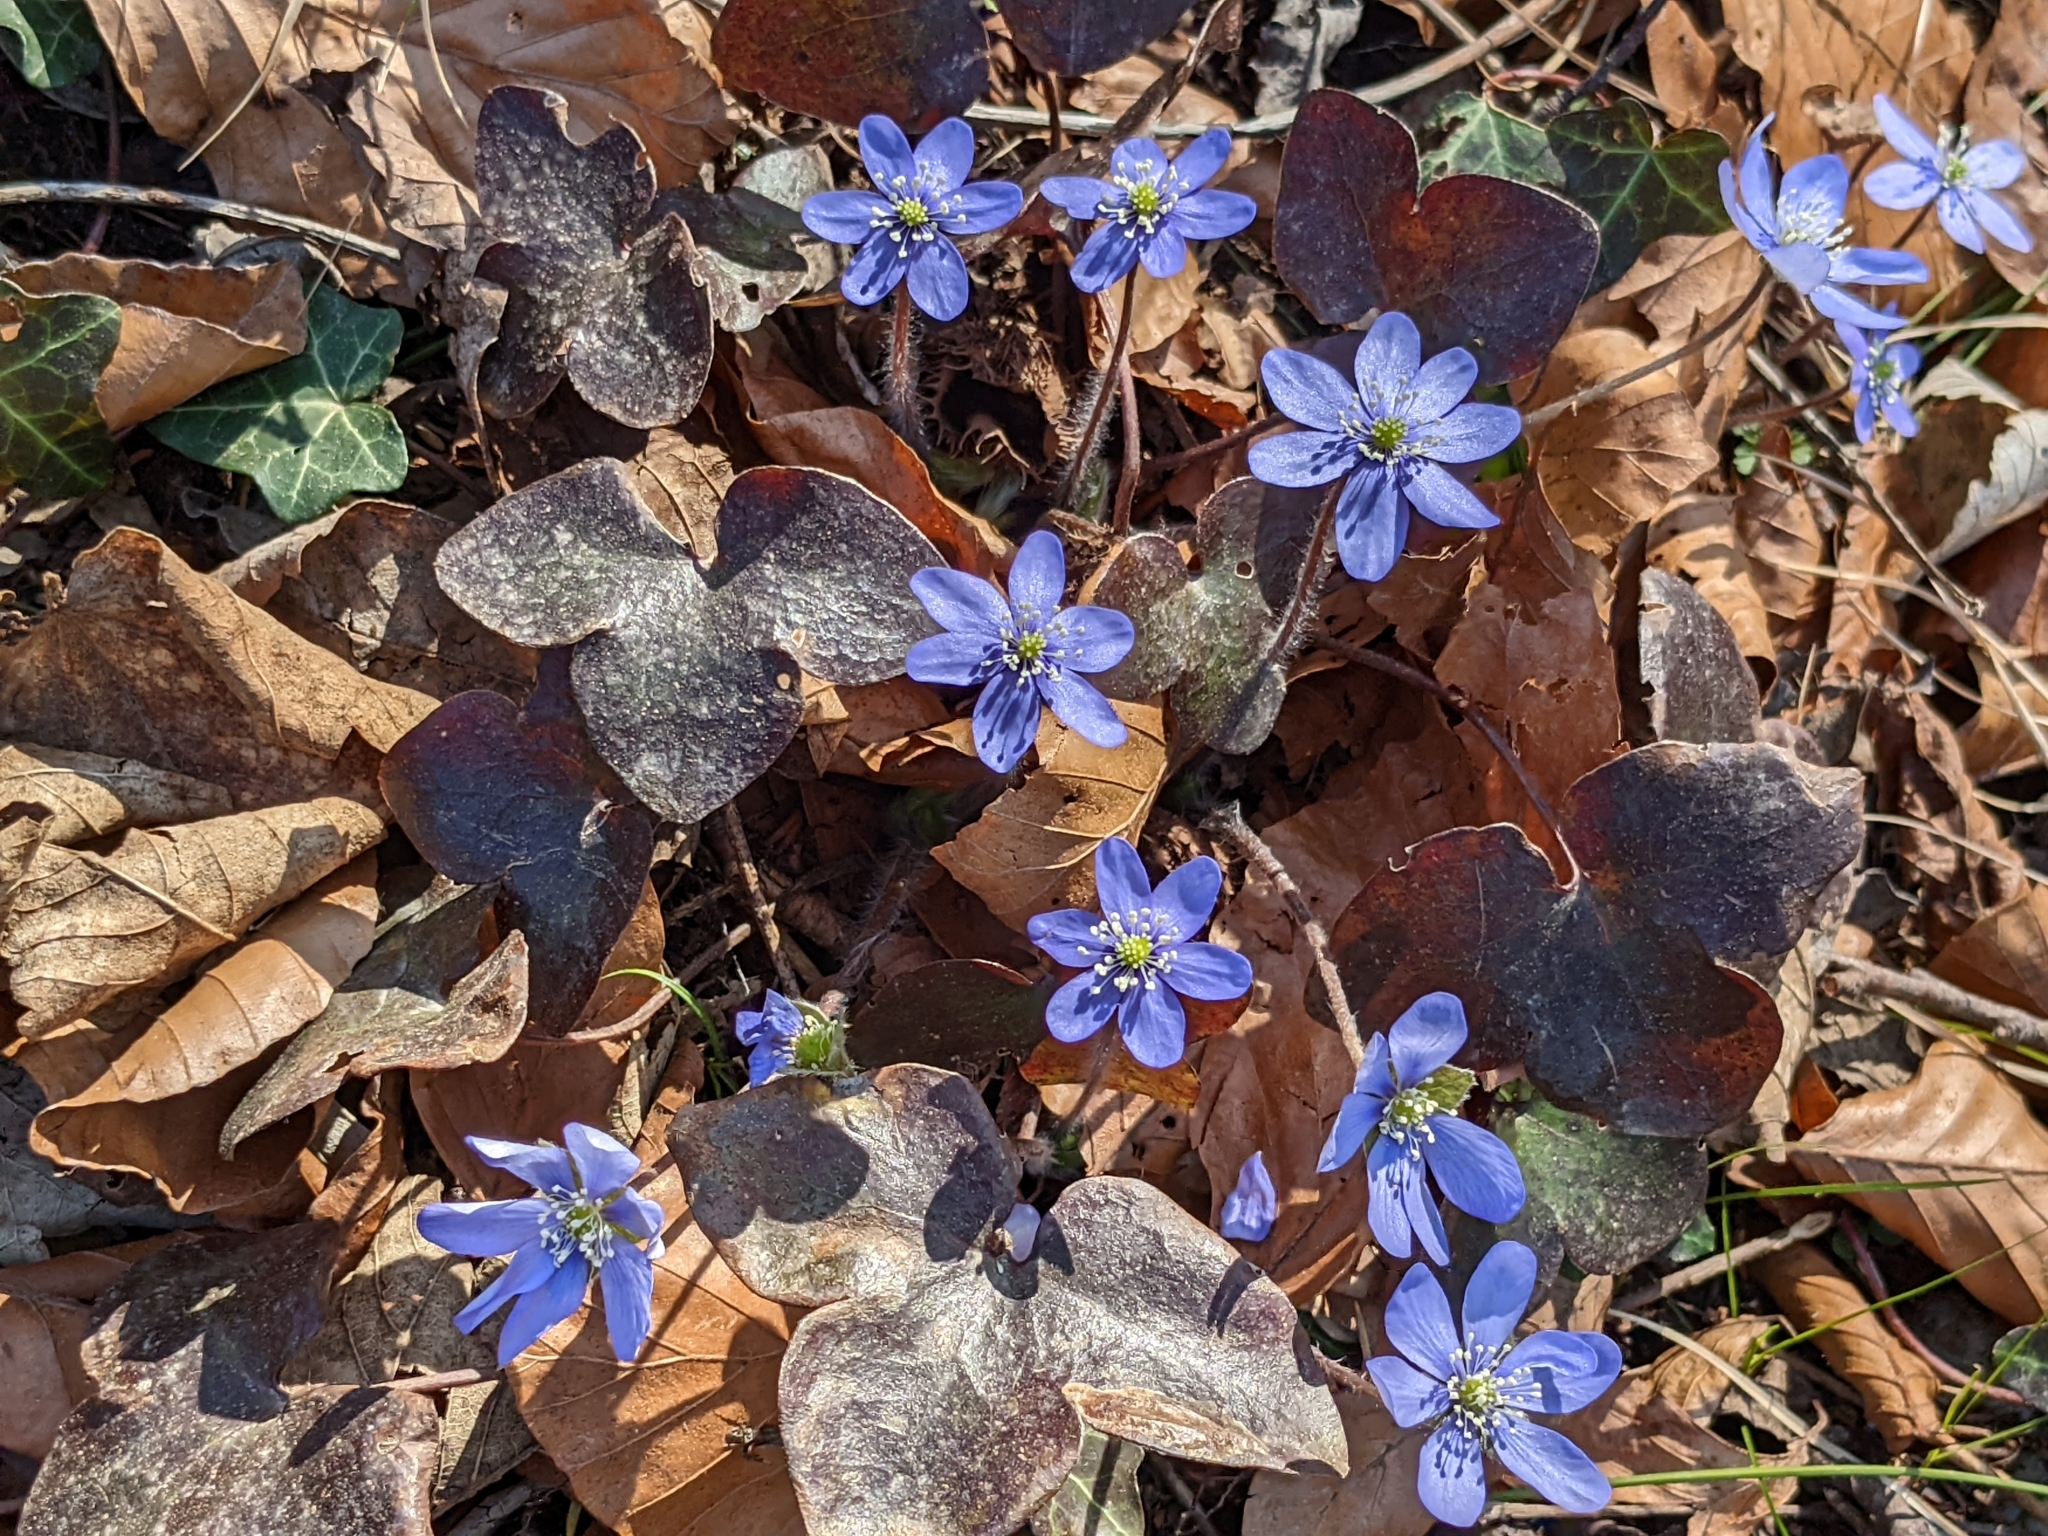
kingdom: Plantae
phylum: Tracheophyta
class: Magnoliopsida
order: Ranunculales
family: Ranunculaceae
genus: Hepatica
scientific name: Hepatica nobilis
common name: Liverleaf
